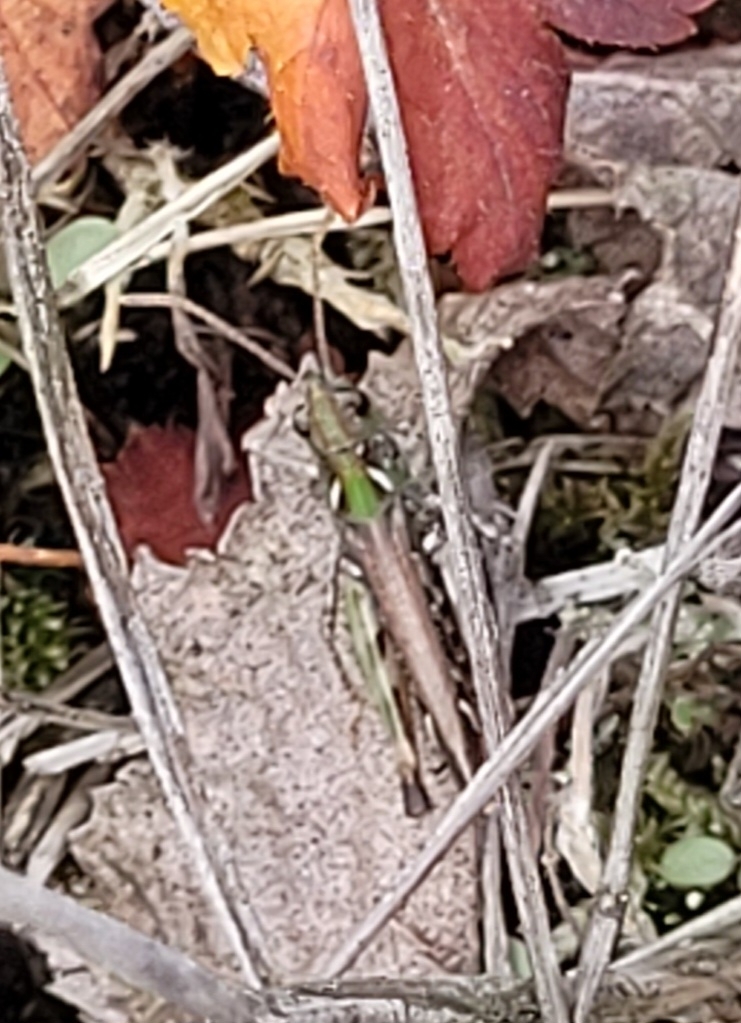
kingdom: Animalia
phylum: Arthropoda
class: Insecta
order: Orthoptera
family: Acrididae
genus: Myrmeleotettix
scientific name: Myrmeleotettix maculatus
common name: Mottled grasshopper
